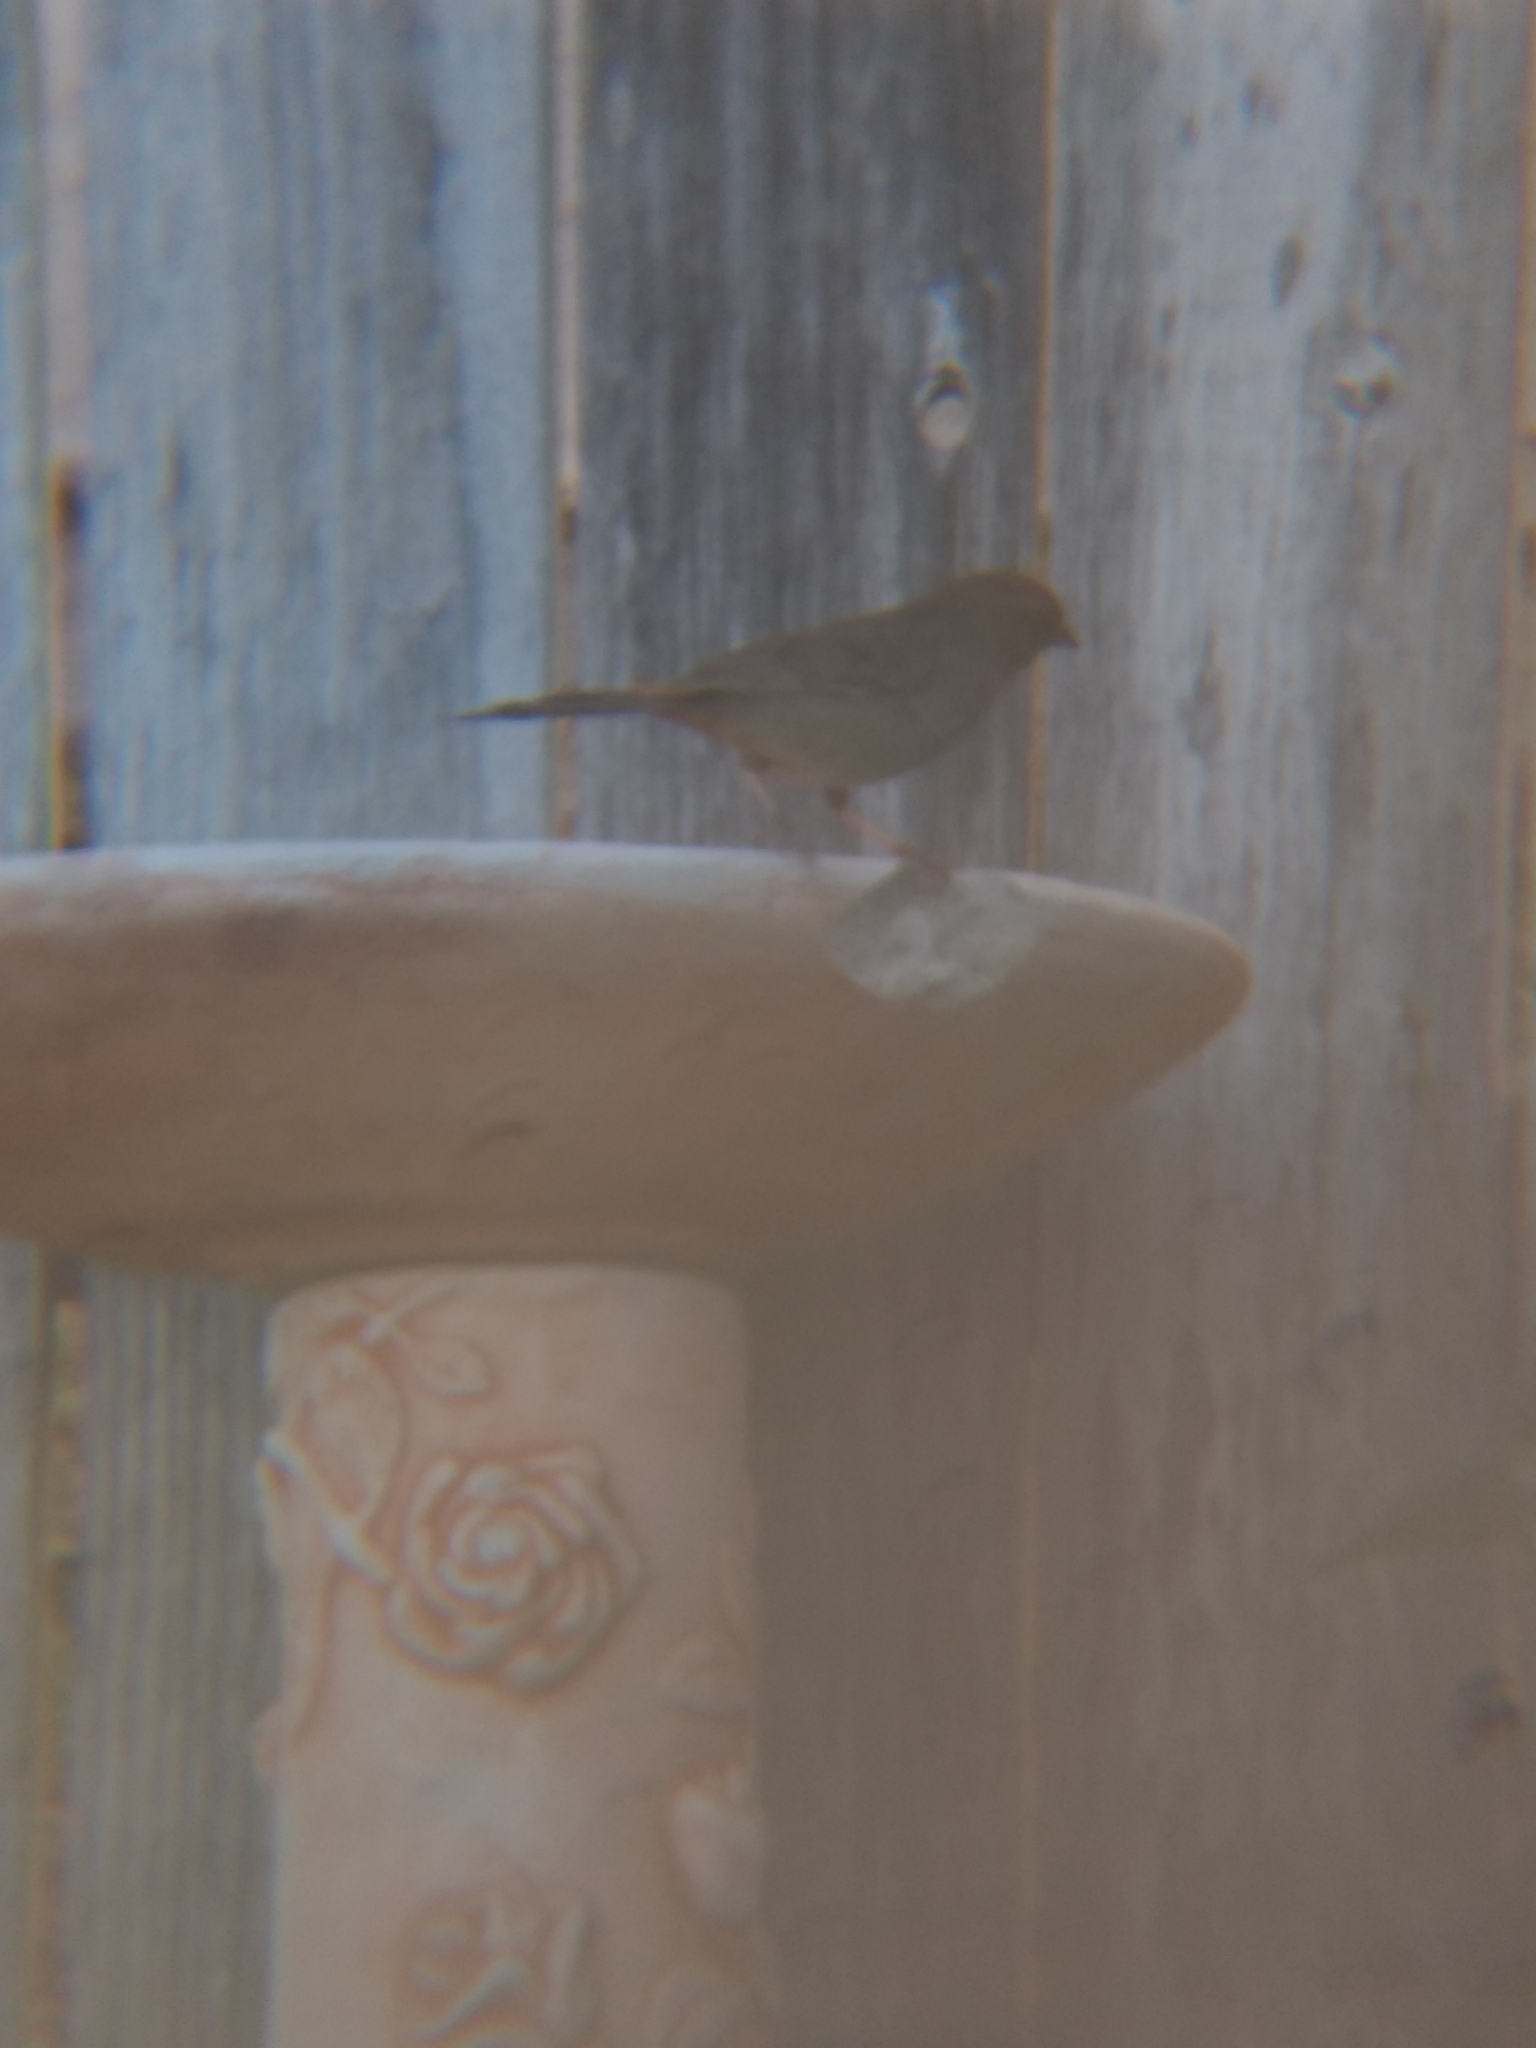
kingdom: Animalia
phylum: Chordata
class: Aves
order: Passeriformes
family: Passerellidae
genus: Melozone
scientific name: Melozone crissalis
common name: California towhee
